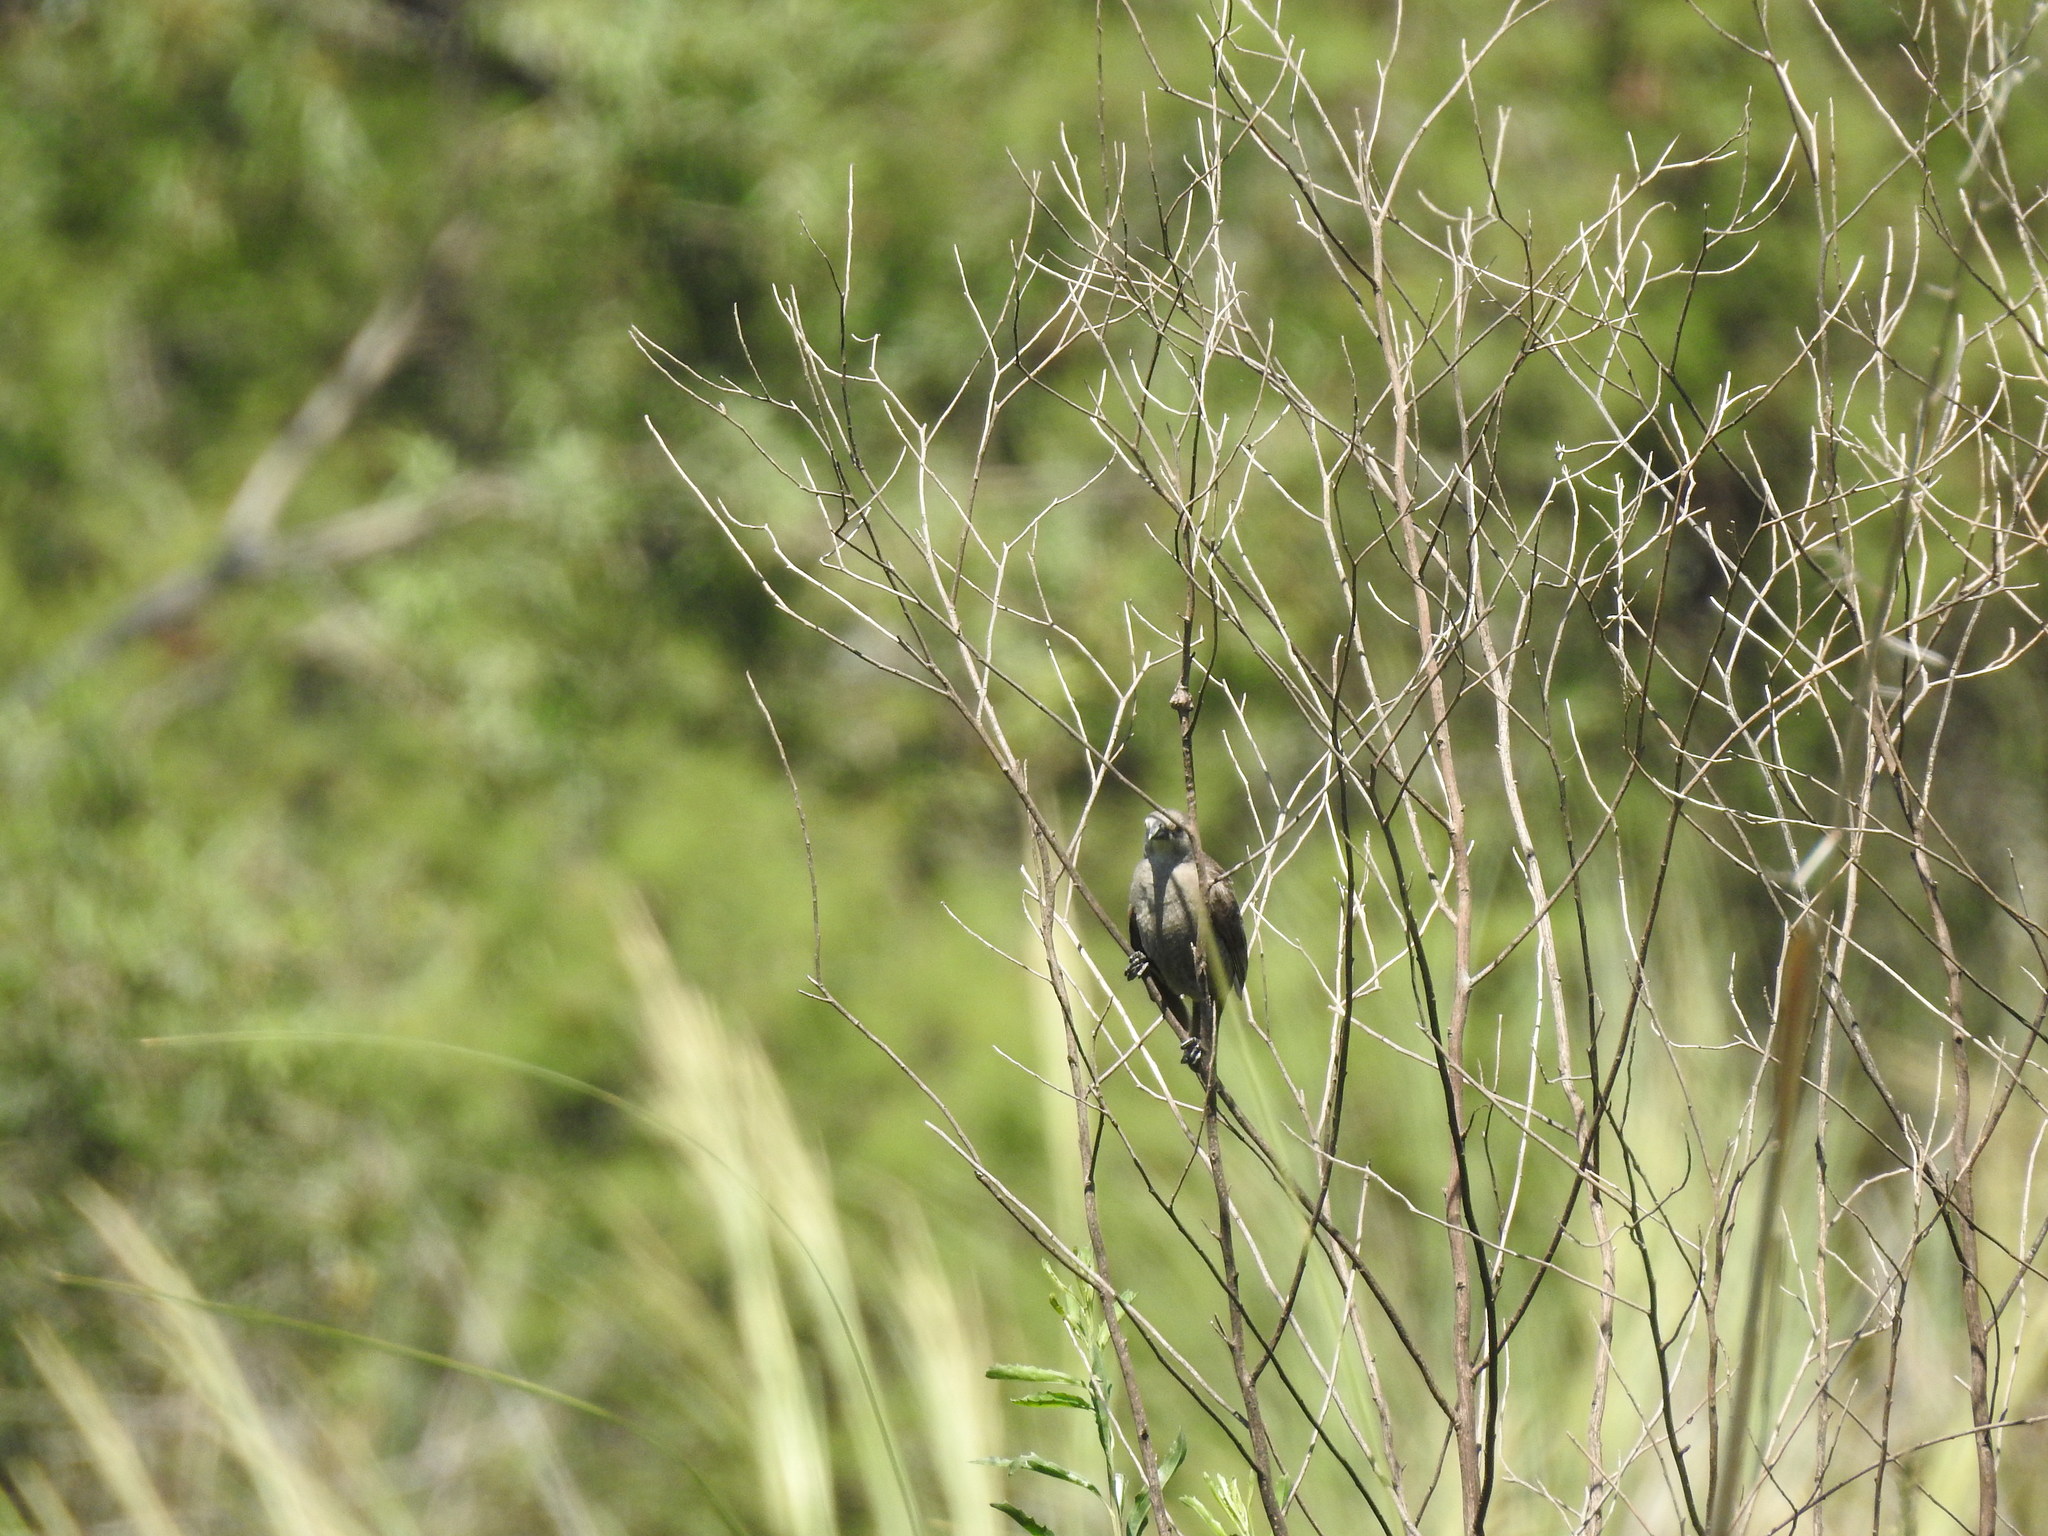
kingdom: Animalia
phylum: Chordata
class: Aves
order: Passeriformes
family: Icteridae
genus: Molothrus
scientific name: Molothrus bonariensis
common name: Shiny cowbird
